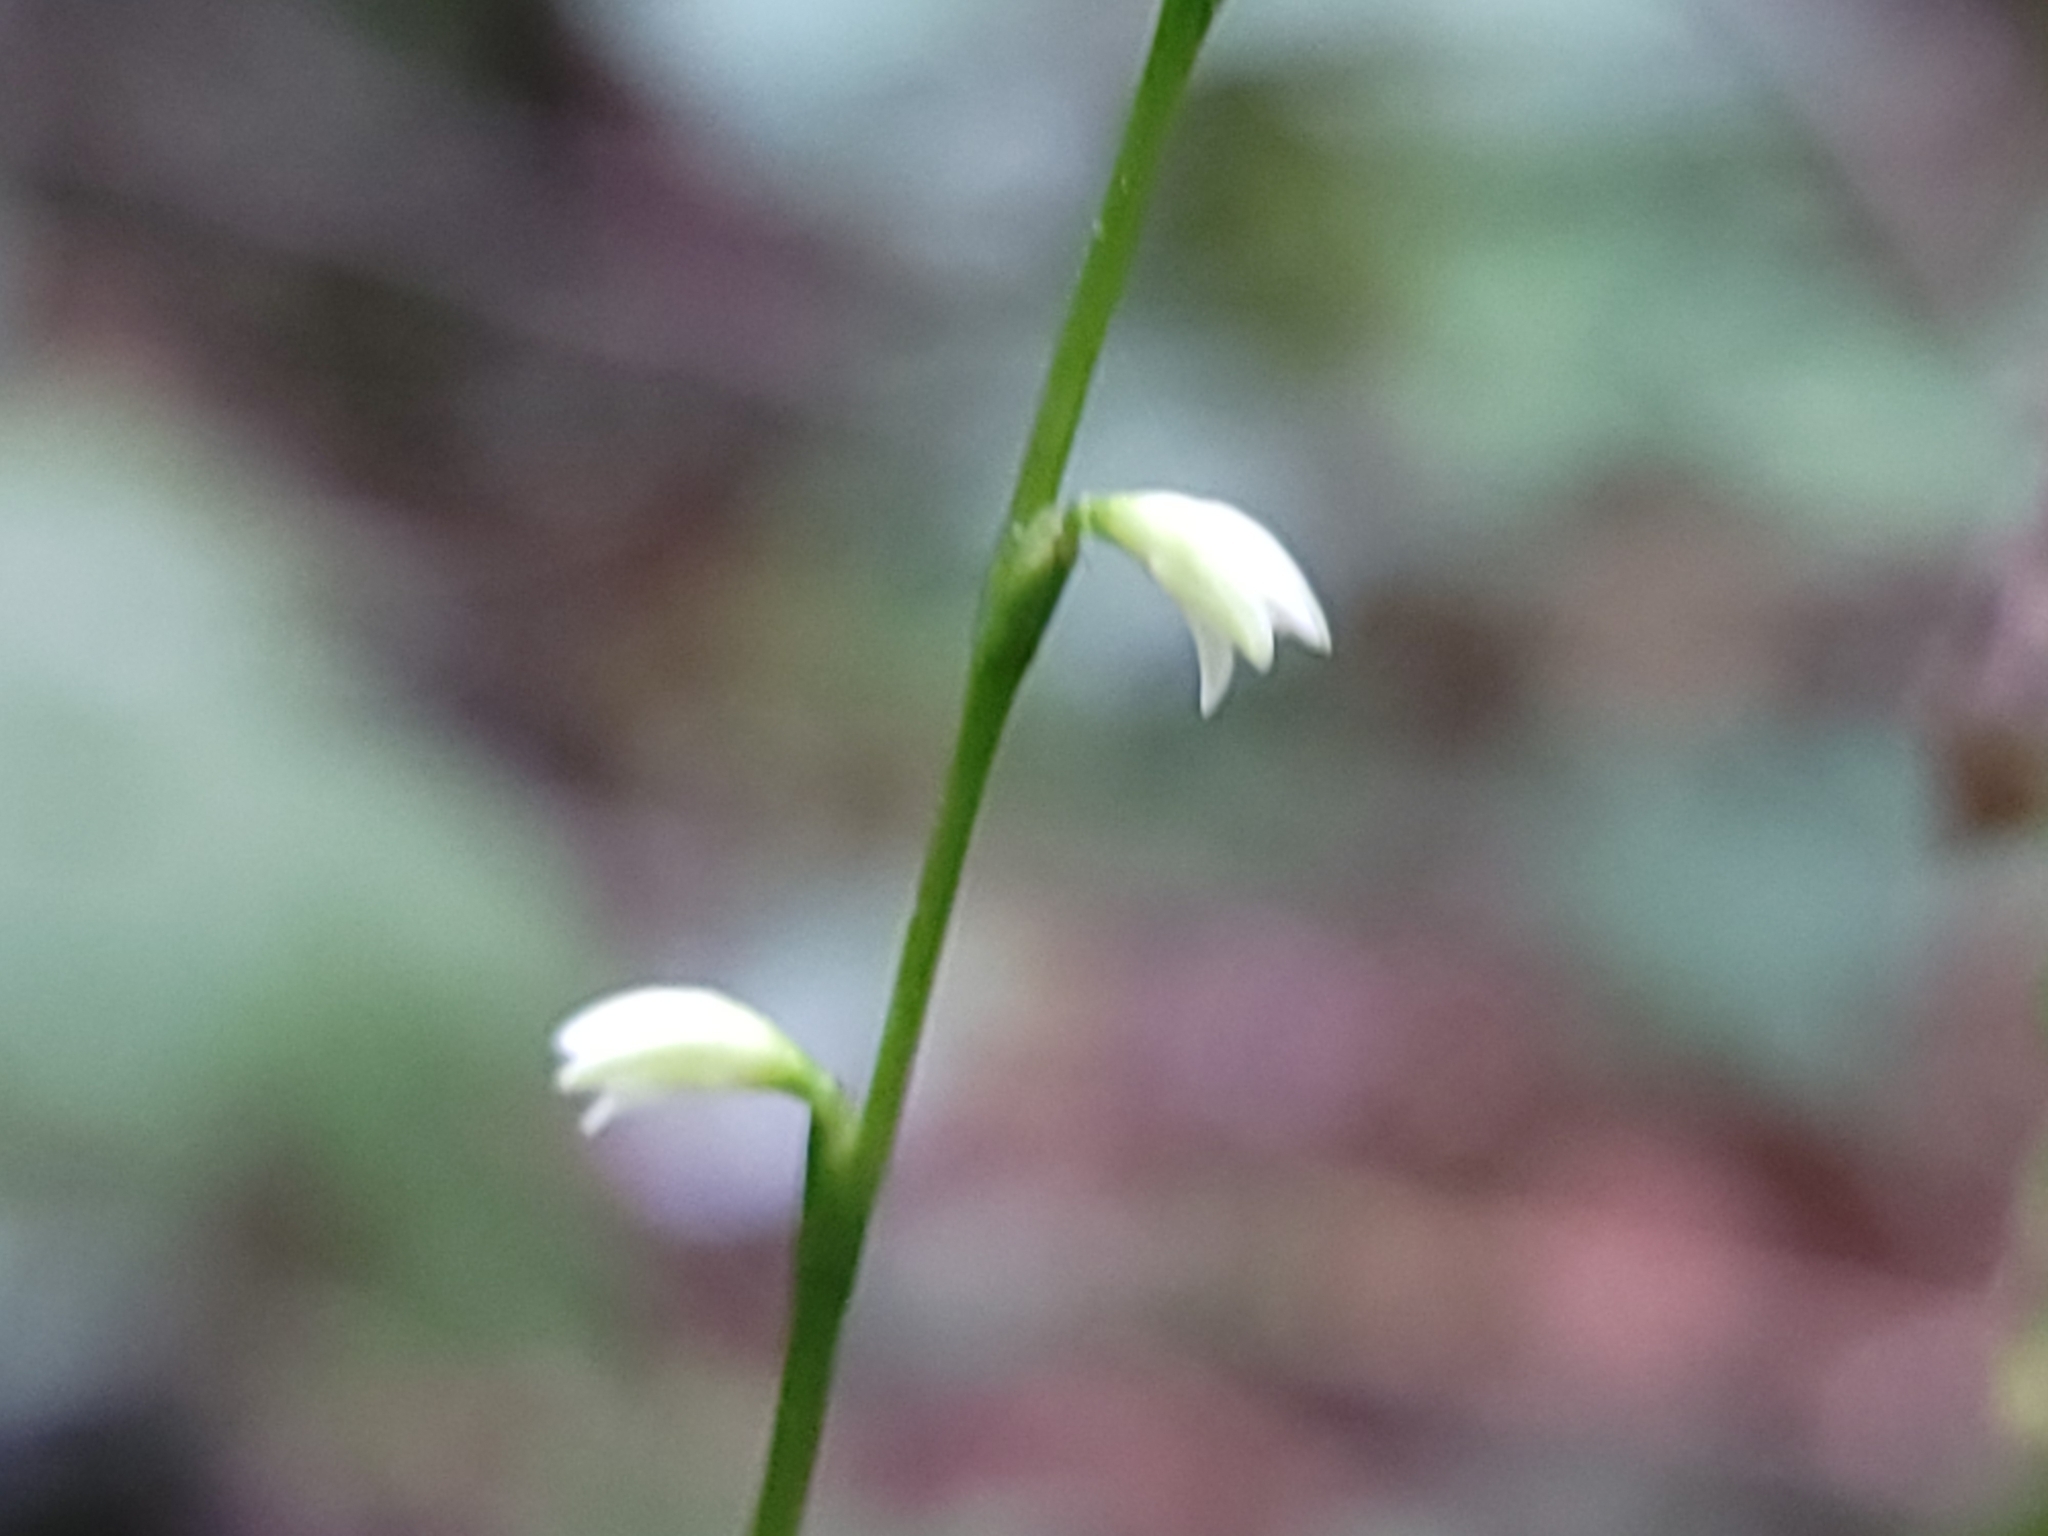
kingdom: Plantae
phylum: Tracheophyta
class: Magnoliopsida
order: Caryophyllales
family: Polygonaceae
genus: Persicaria
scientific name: Persicaria virginiana
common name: Jumpseed
